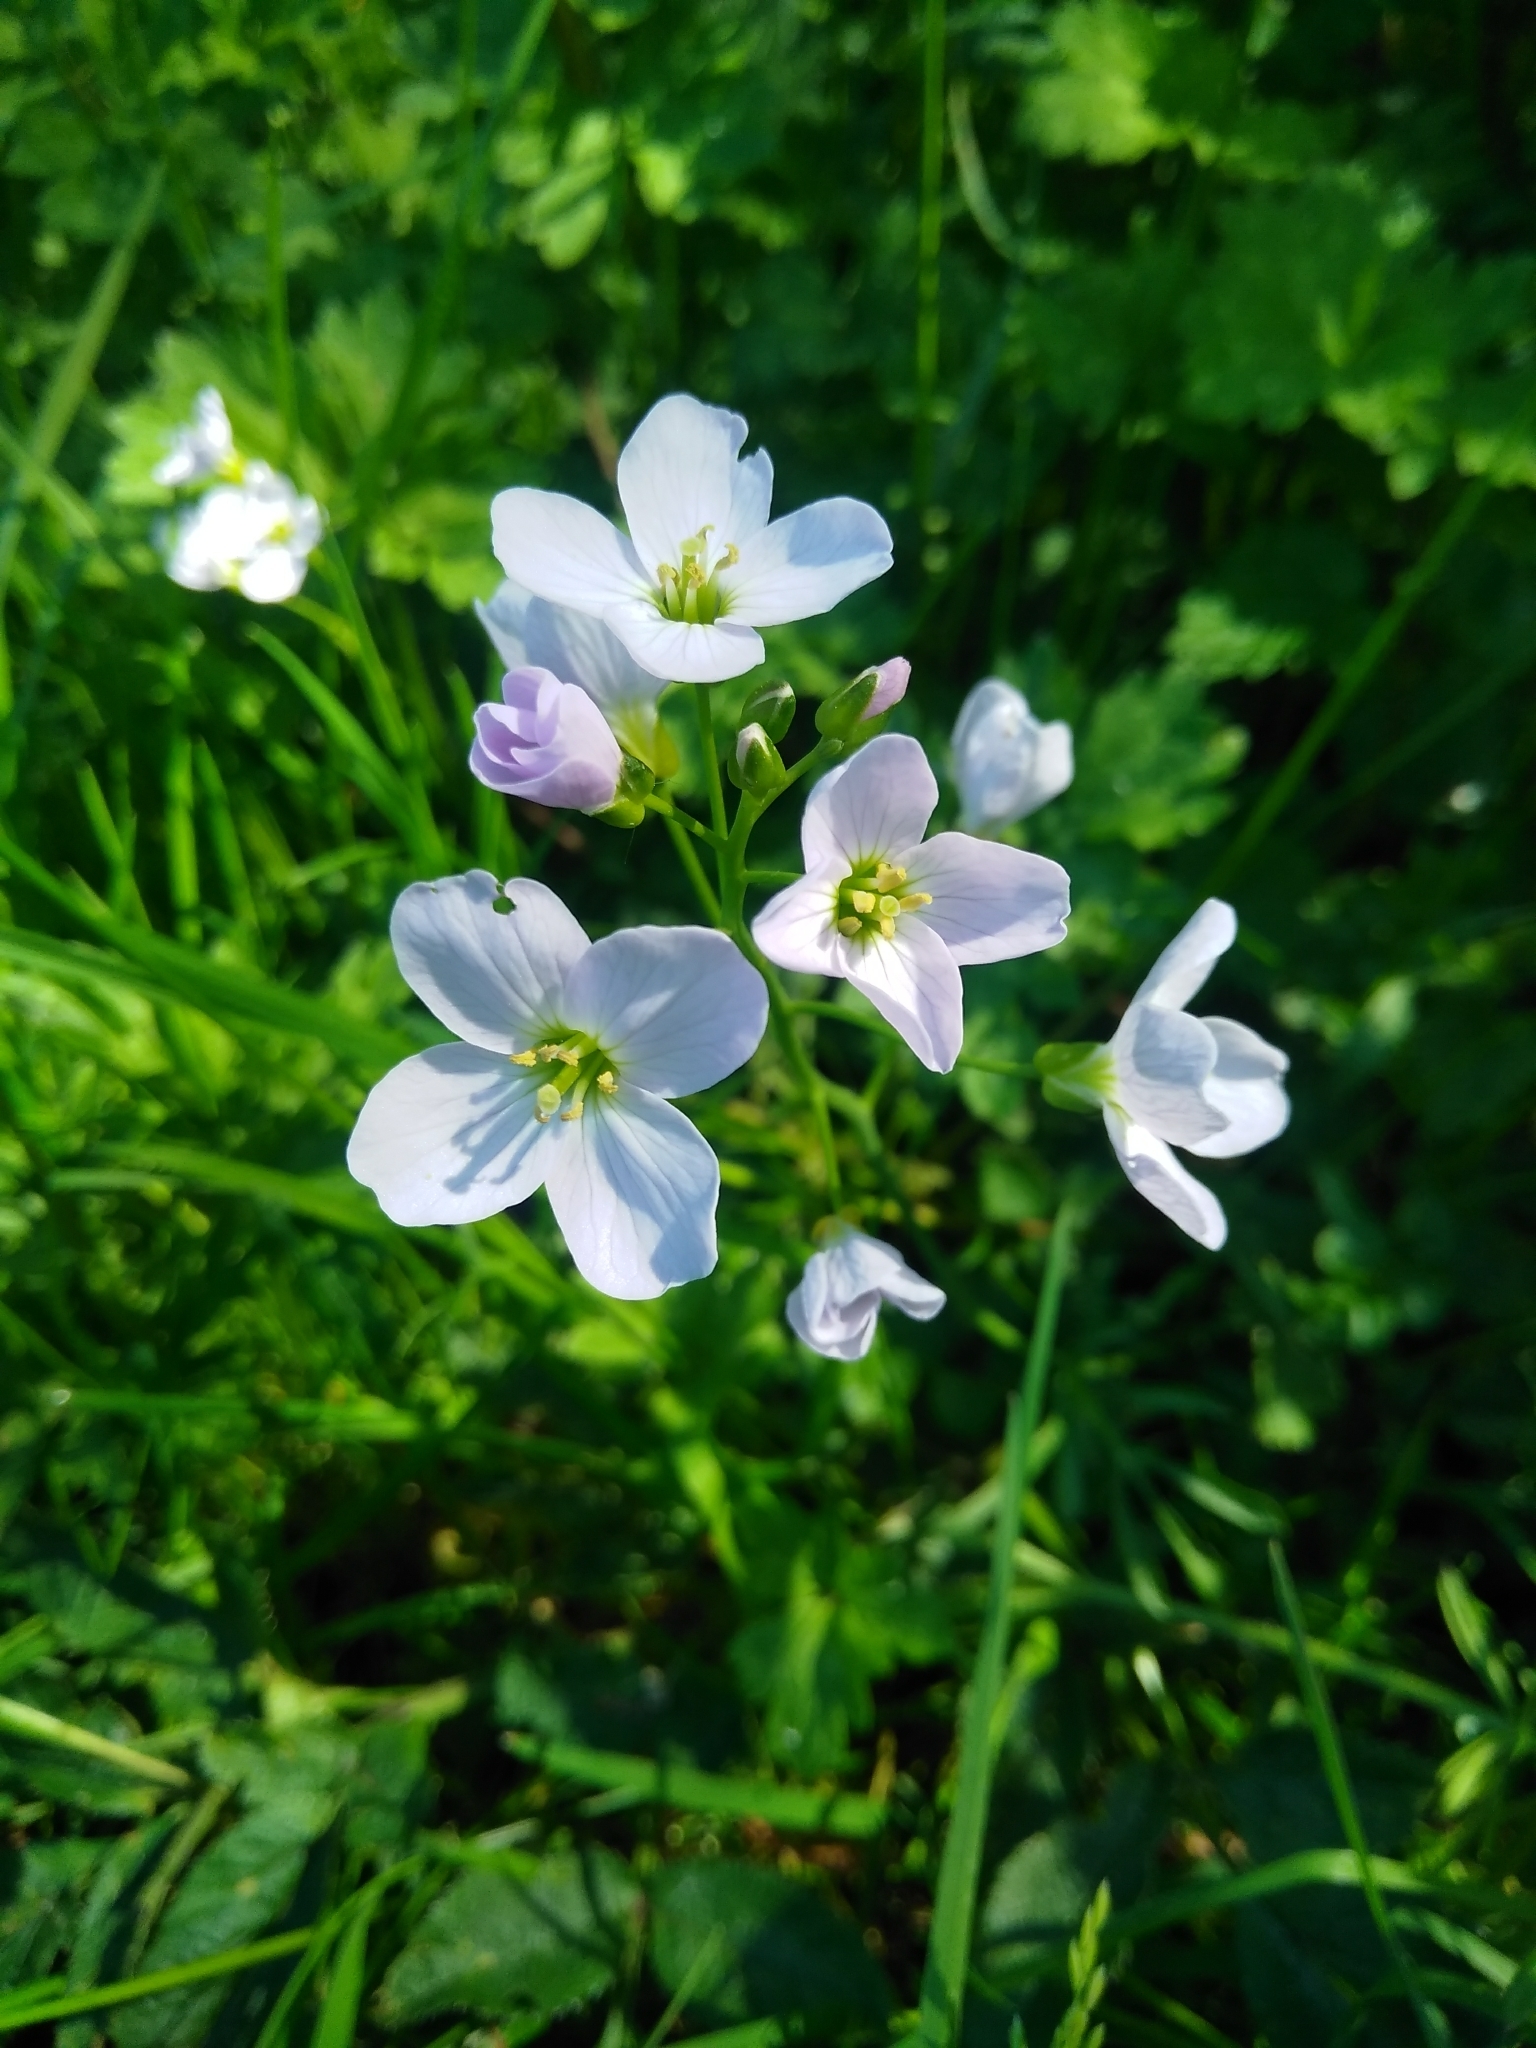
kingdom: Plantae
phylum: Tracheophyta
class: Magnoliopsida
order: Brassicales
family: Brassicaceae
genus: Cardamine
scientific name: Cardamine pratensis
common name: Cuckoo flower
